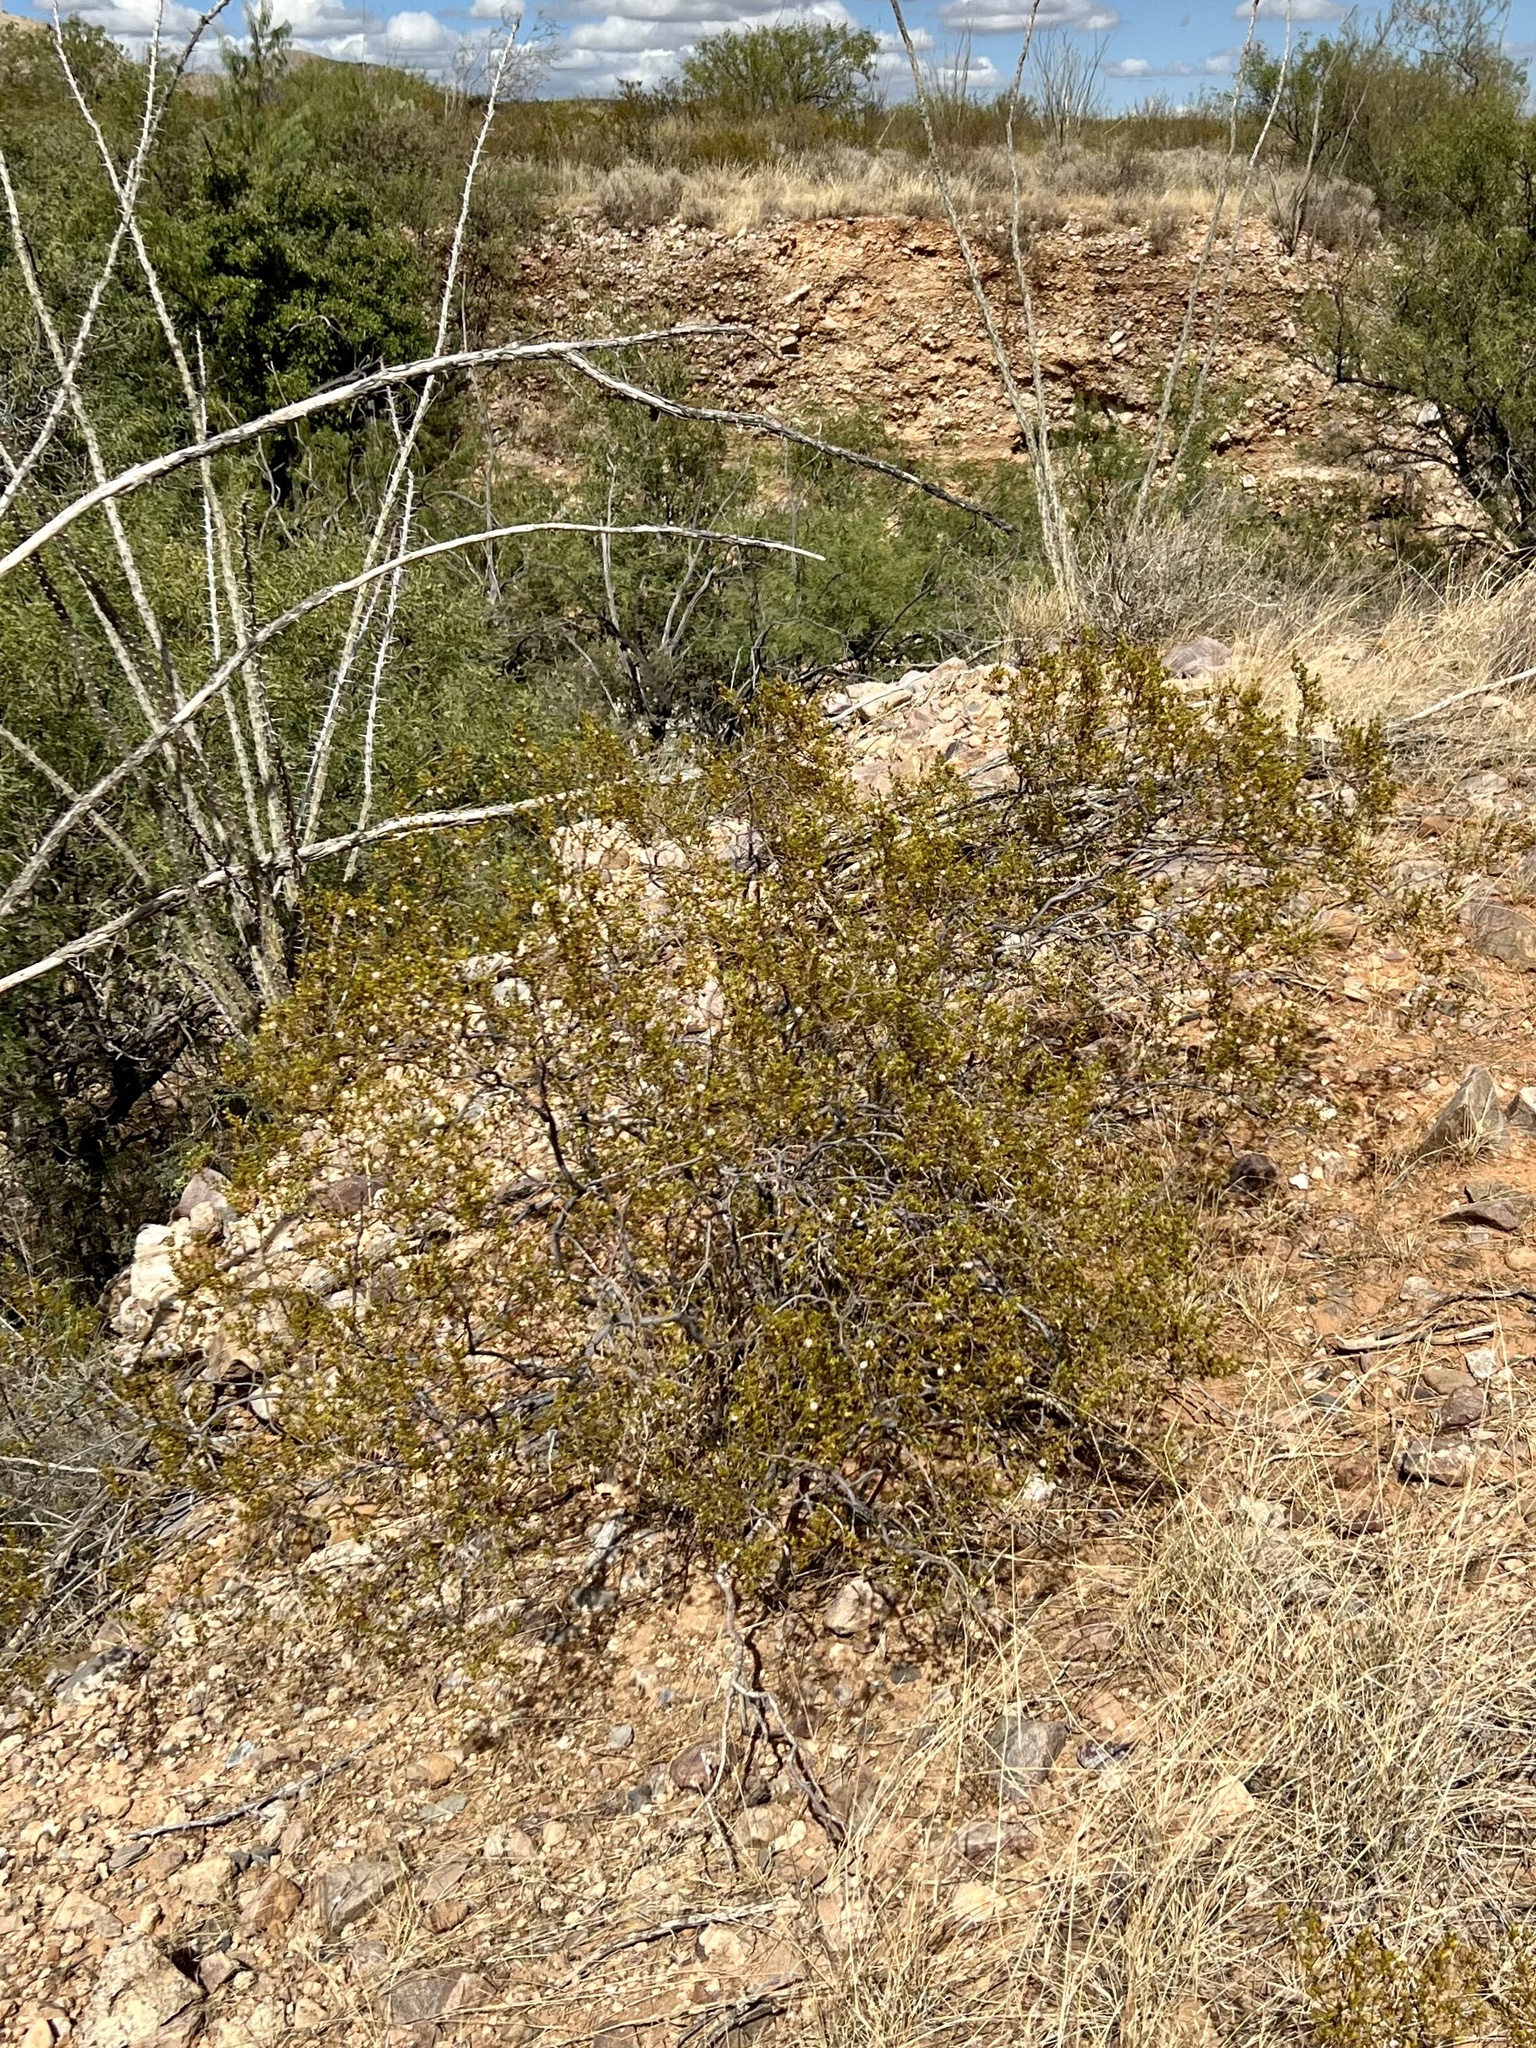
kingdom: Plantae
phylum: Tracheophyta
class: Magnoliopsida
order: Zygophyllales
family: Zygophyllaceae
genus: Larrea
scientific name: Larrea tridentata
